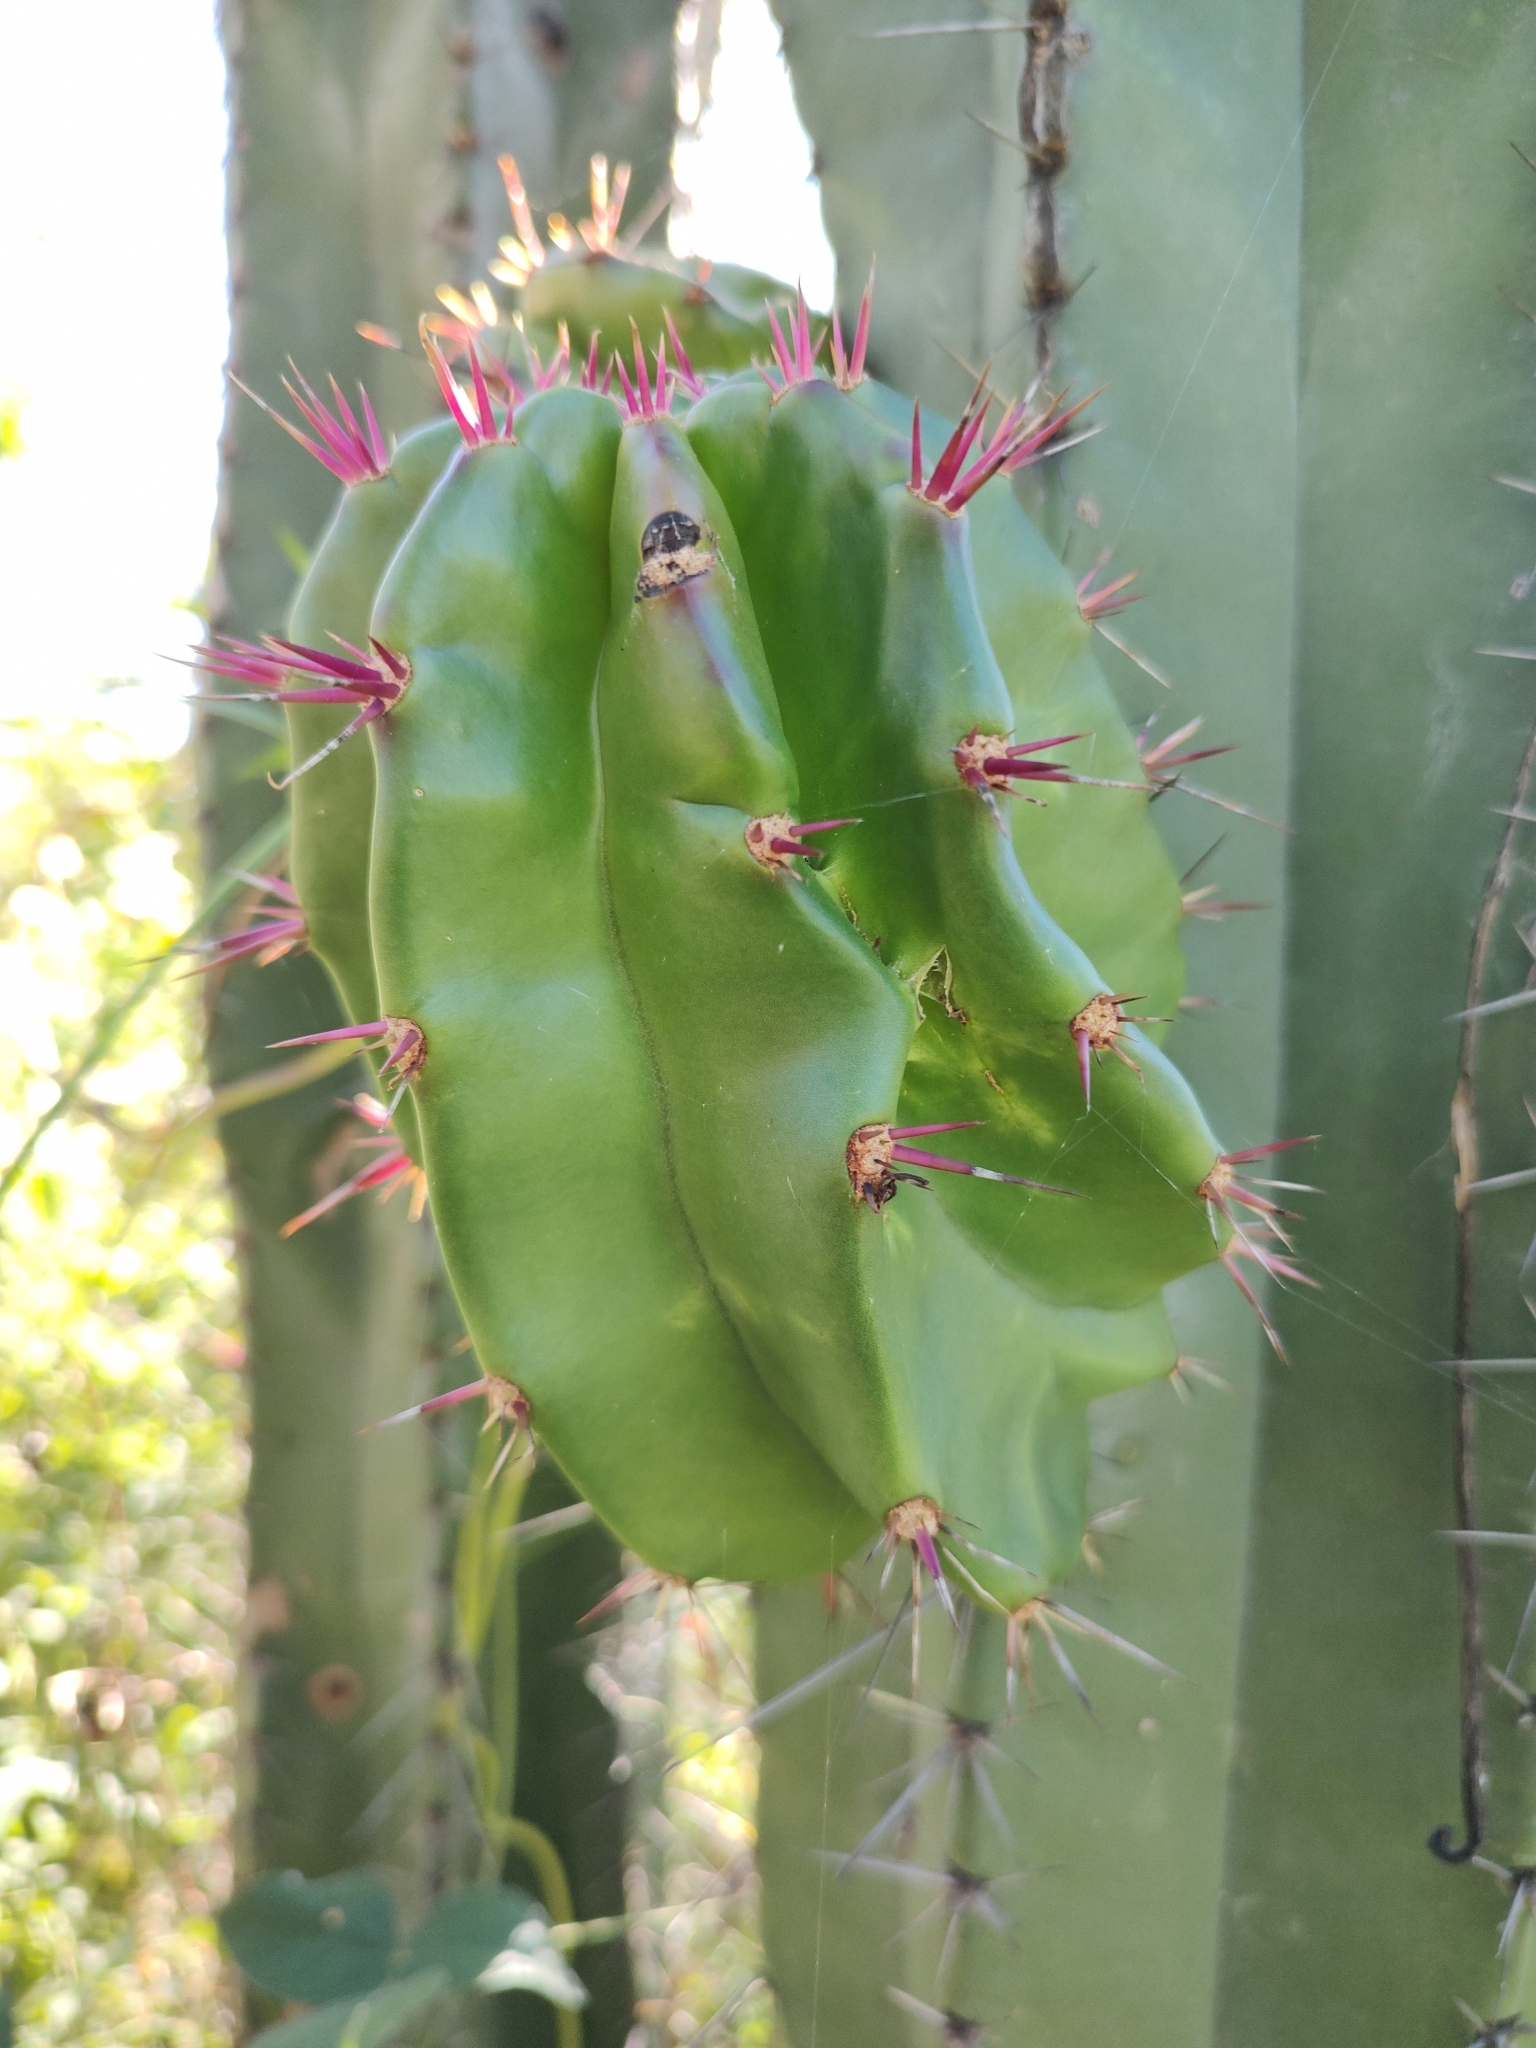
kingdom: Plantae
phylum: Tracheophyta
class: Magnoliopsida
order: Caryophyllales
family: Cactaceae
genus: Stenocereus
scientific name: Stenocereus queretaroensis
